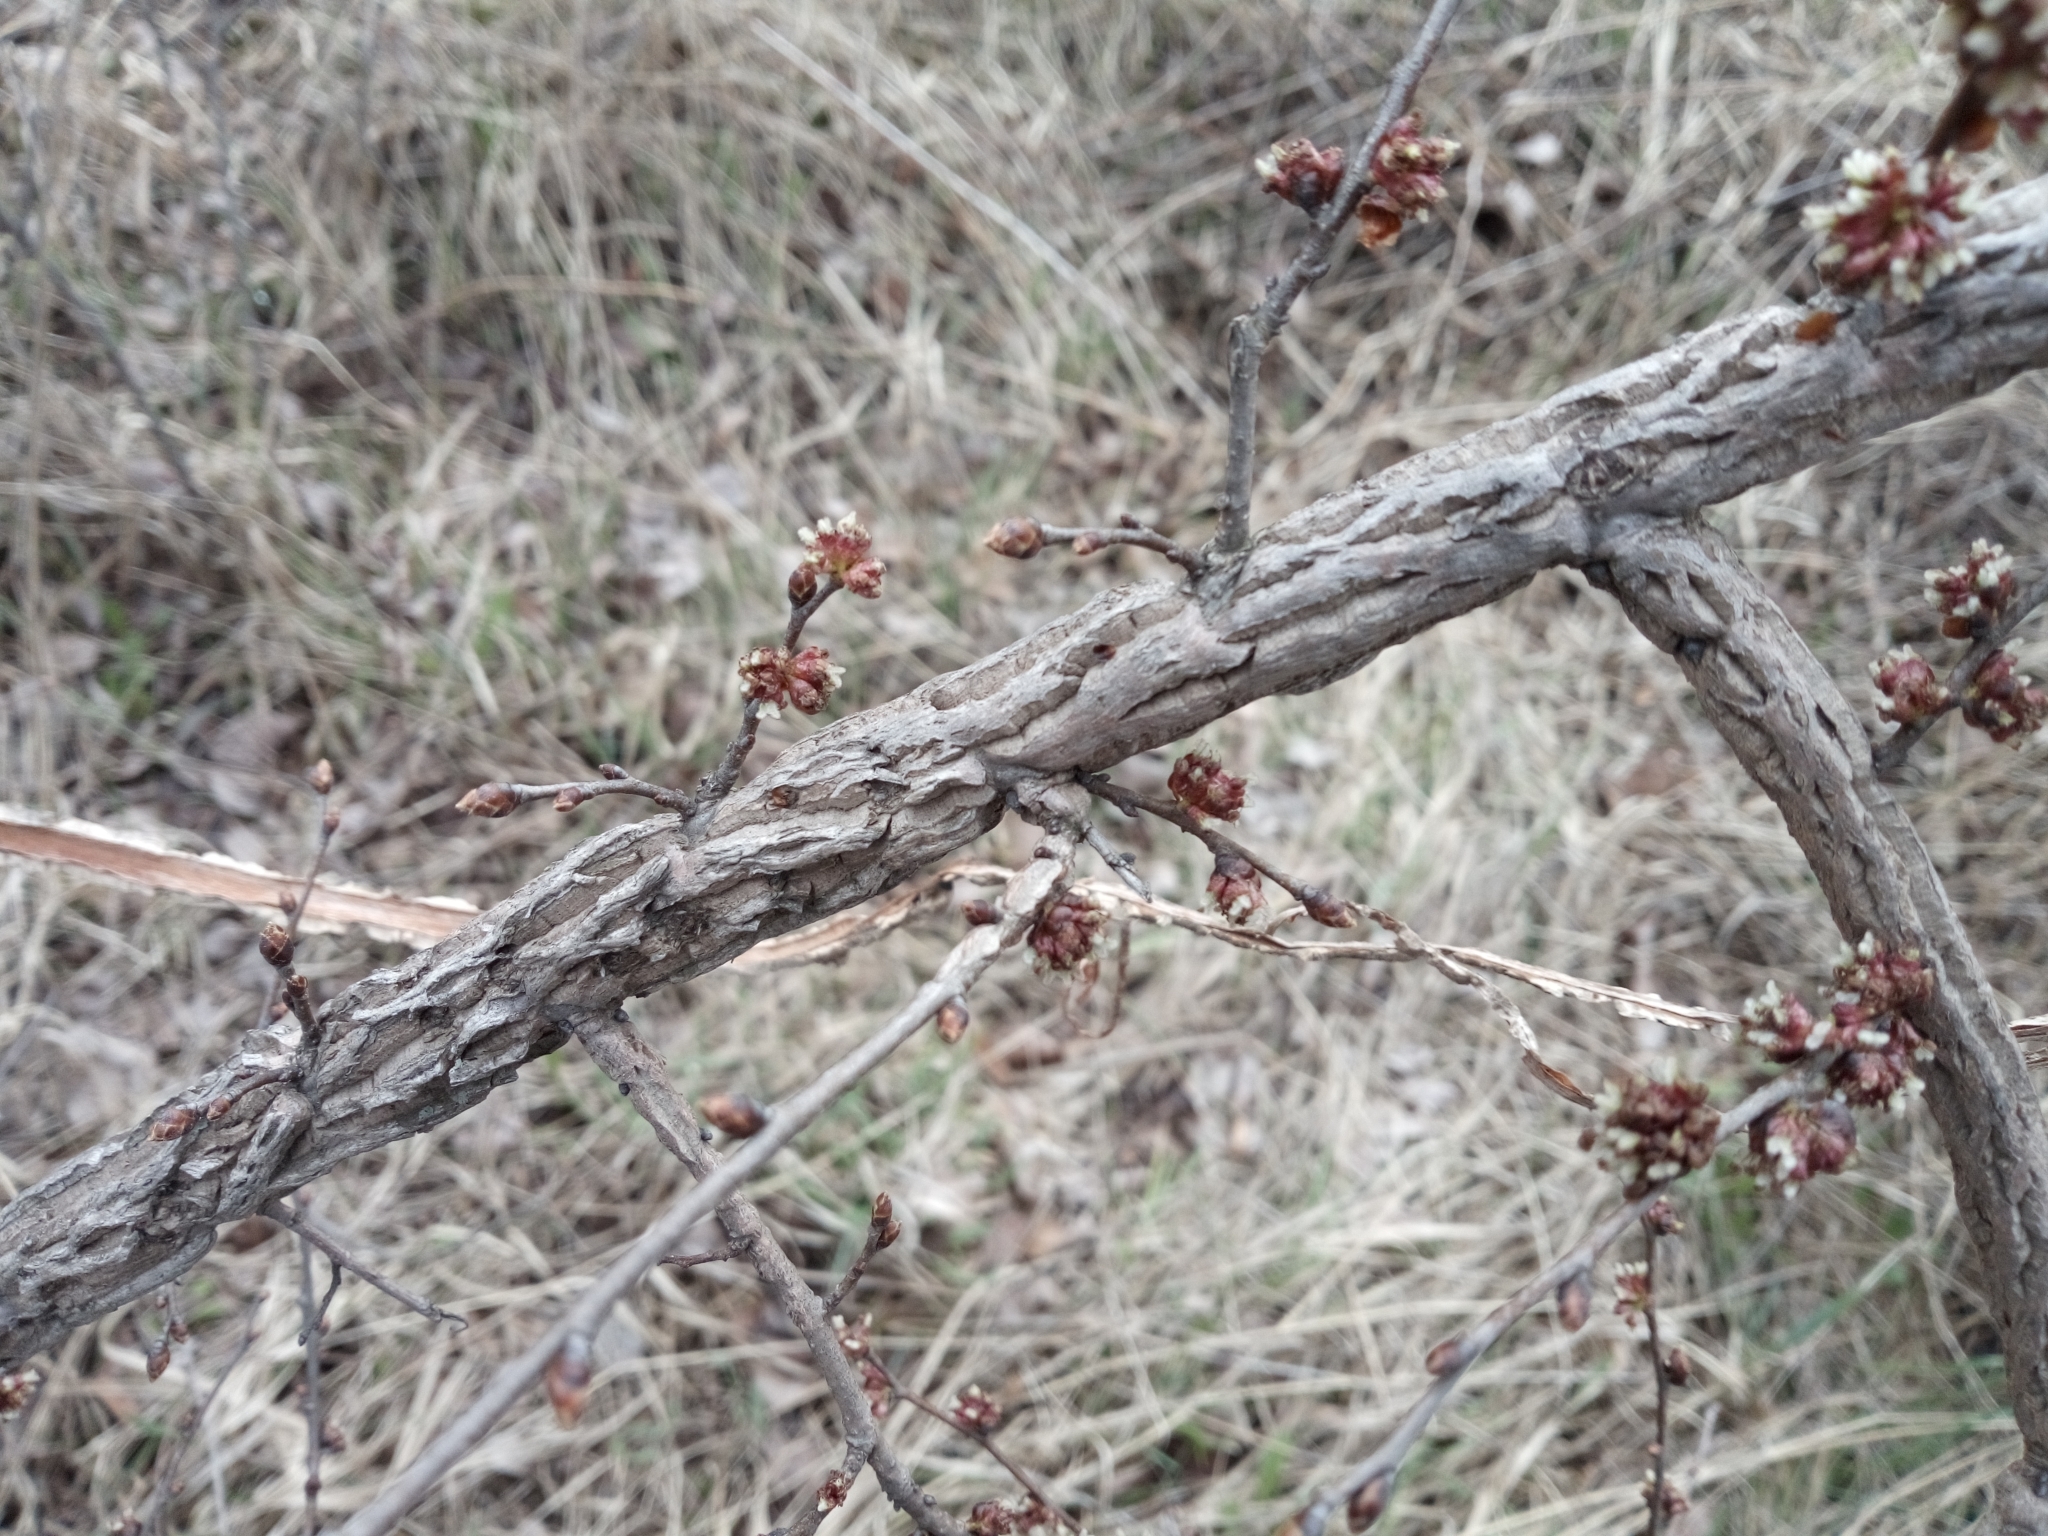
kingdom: Plantae
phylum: Tracheophyta
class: Magnoliopsida
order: Rosales
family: Ulmaceae
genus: Ulmus
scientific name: Ulmus minor
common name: Small-leaved elm
